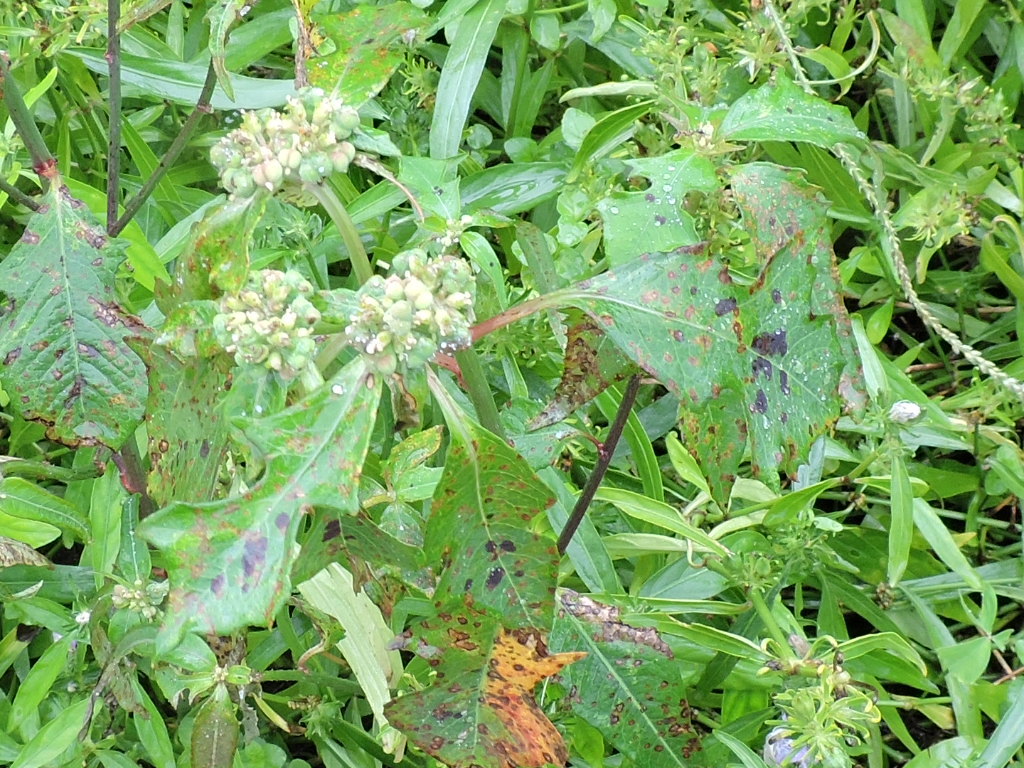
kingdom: Plantae
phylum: Tracheophyta
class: Magnoliopsida
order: Malpighiales
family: Euphorbiaceae
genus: Euphorbia
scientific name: Euphorbia heterophylla
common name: Mexican fireplant
